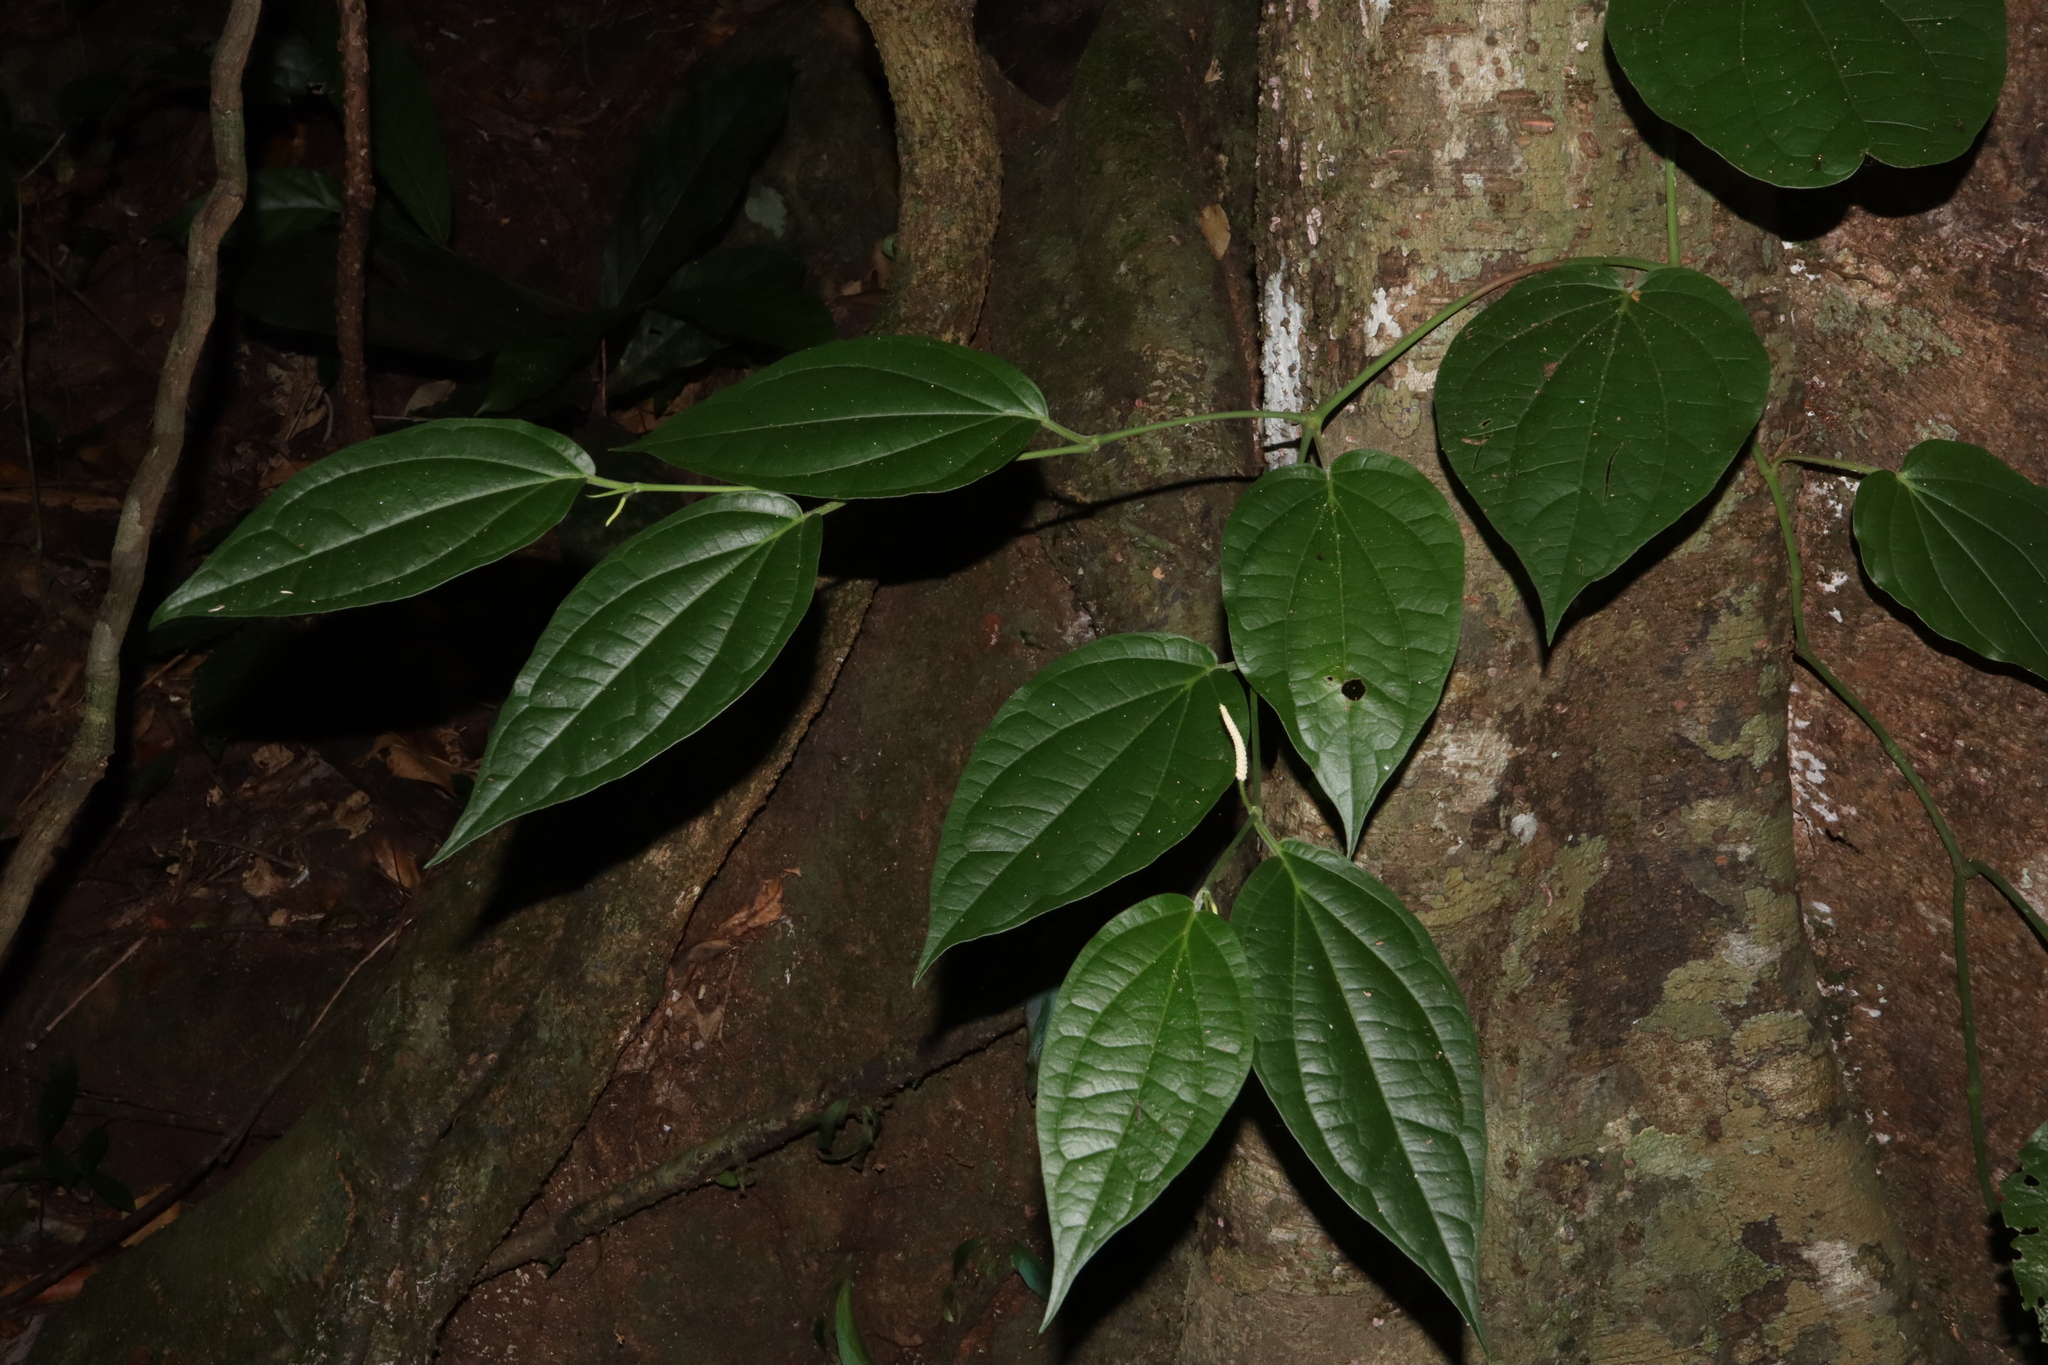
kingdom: Plantae
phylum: Tracheophyta
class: Magnoliopsida
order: Piperales
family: Piperaceae
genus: Piper
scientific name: Piper lanatum
